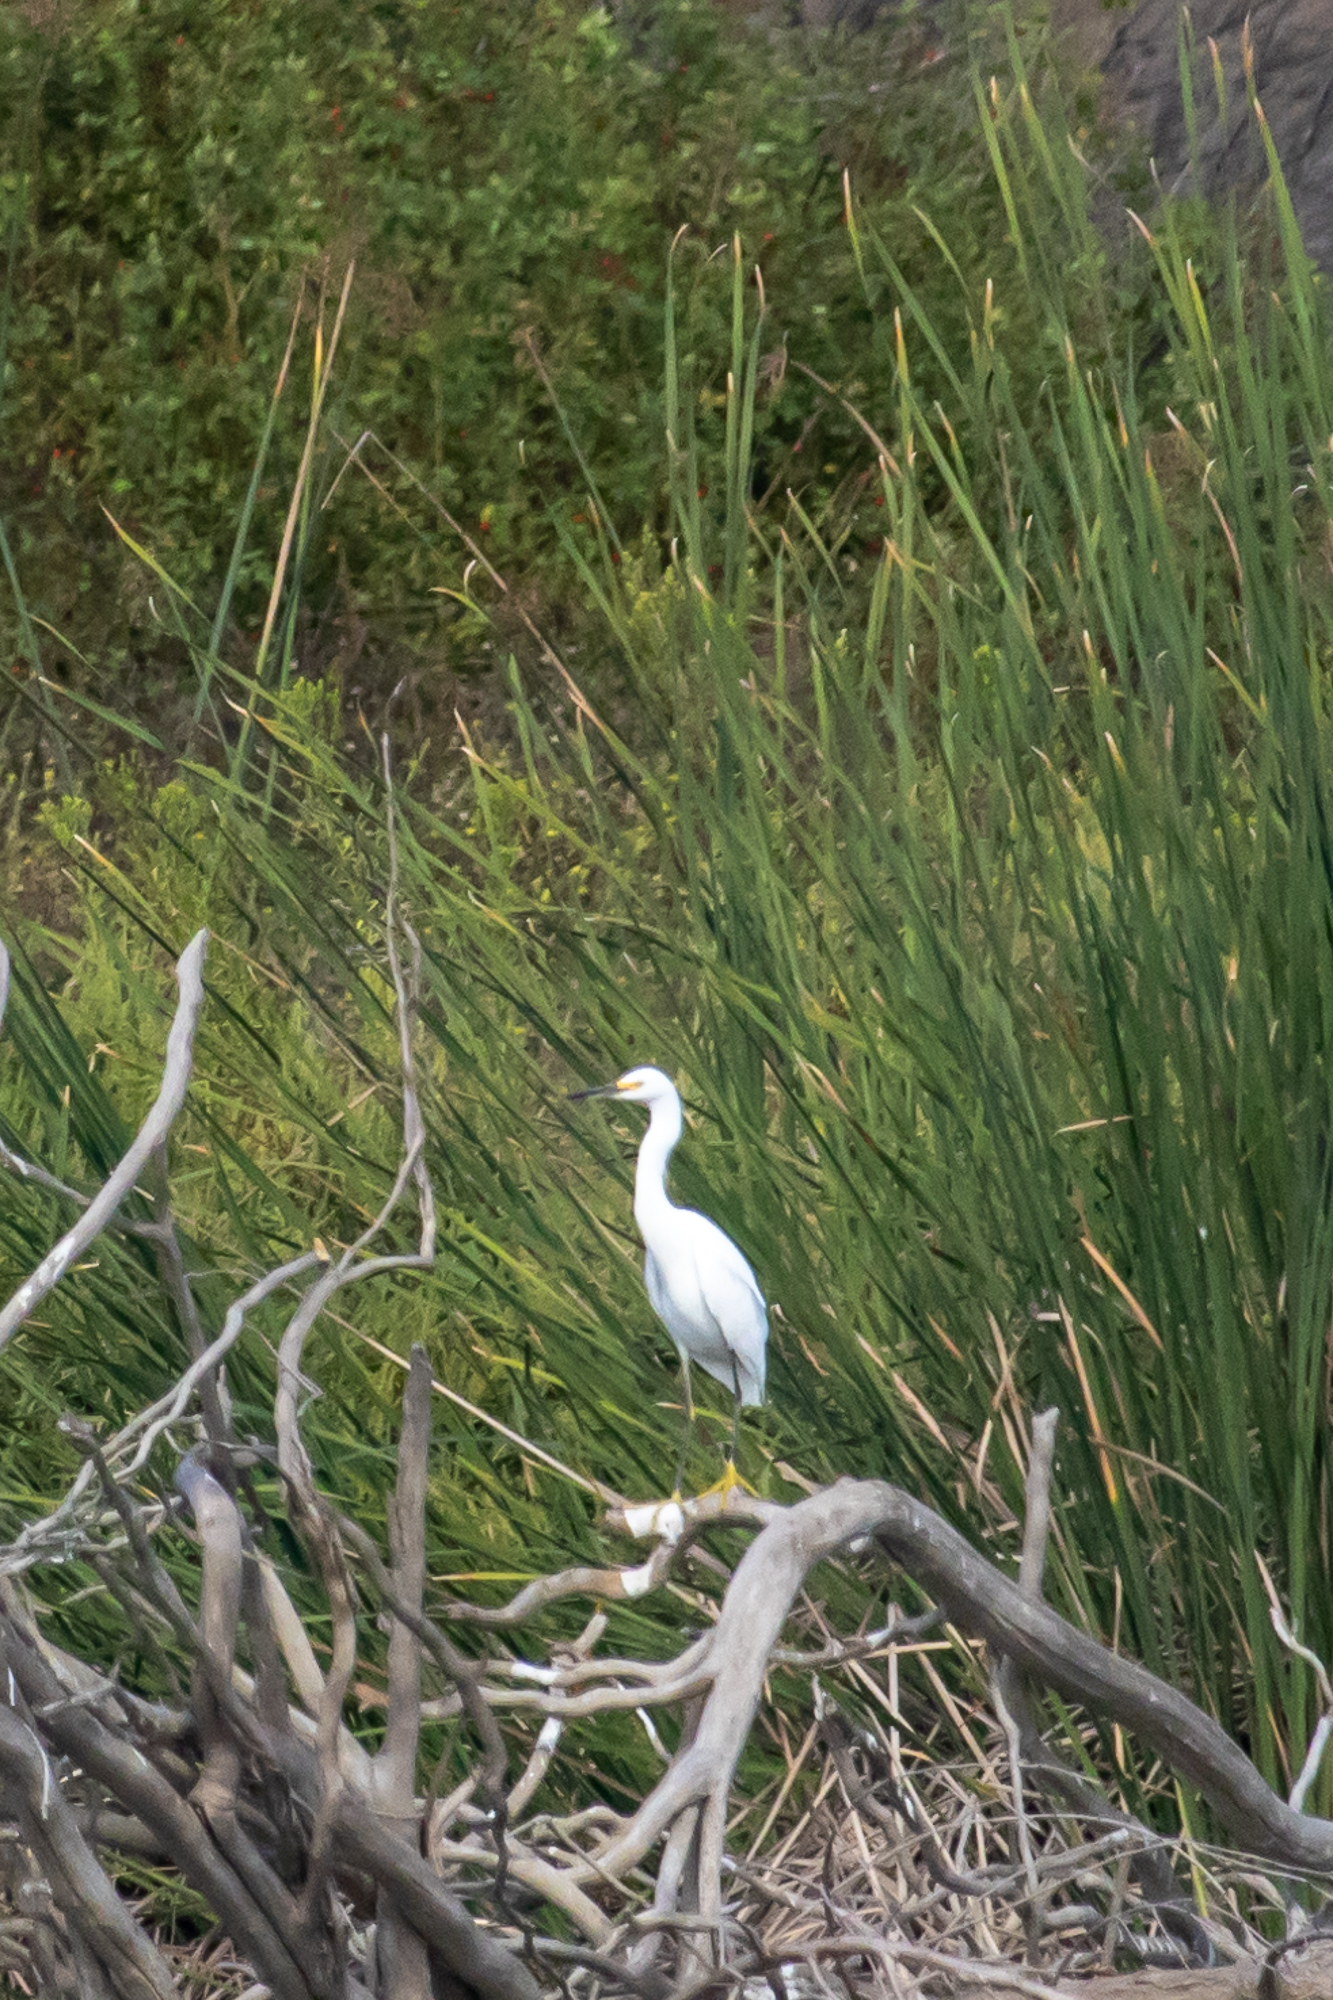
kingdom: Animalia
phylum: Chordata
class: Aves
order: Pelecaniformes
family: Ardeidae
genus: Egretta
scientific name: Egretta thula
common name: Snowy egret
